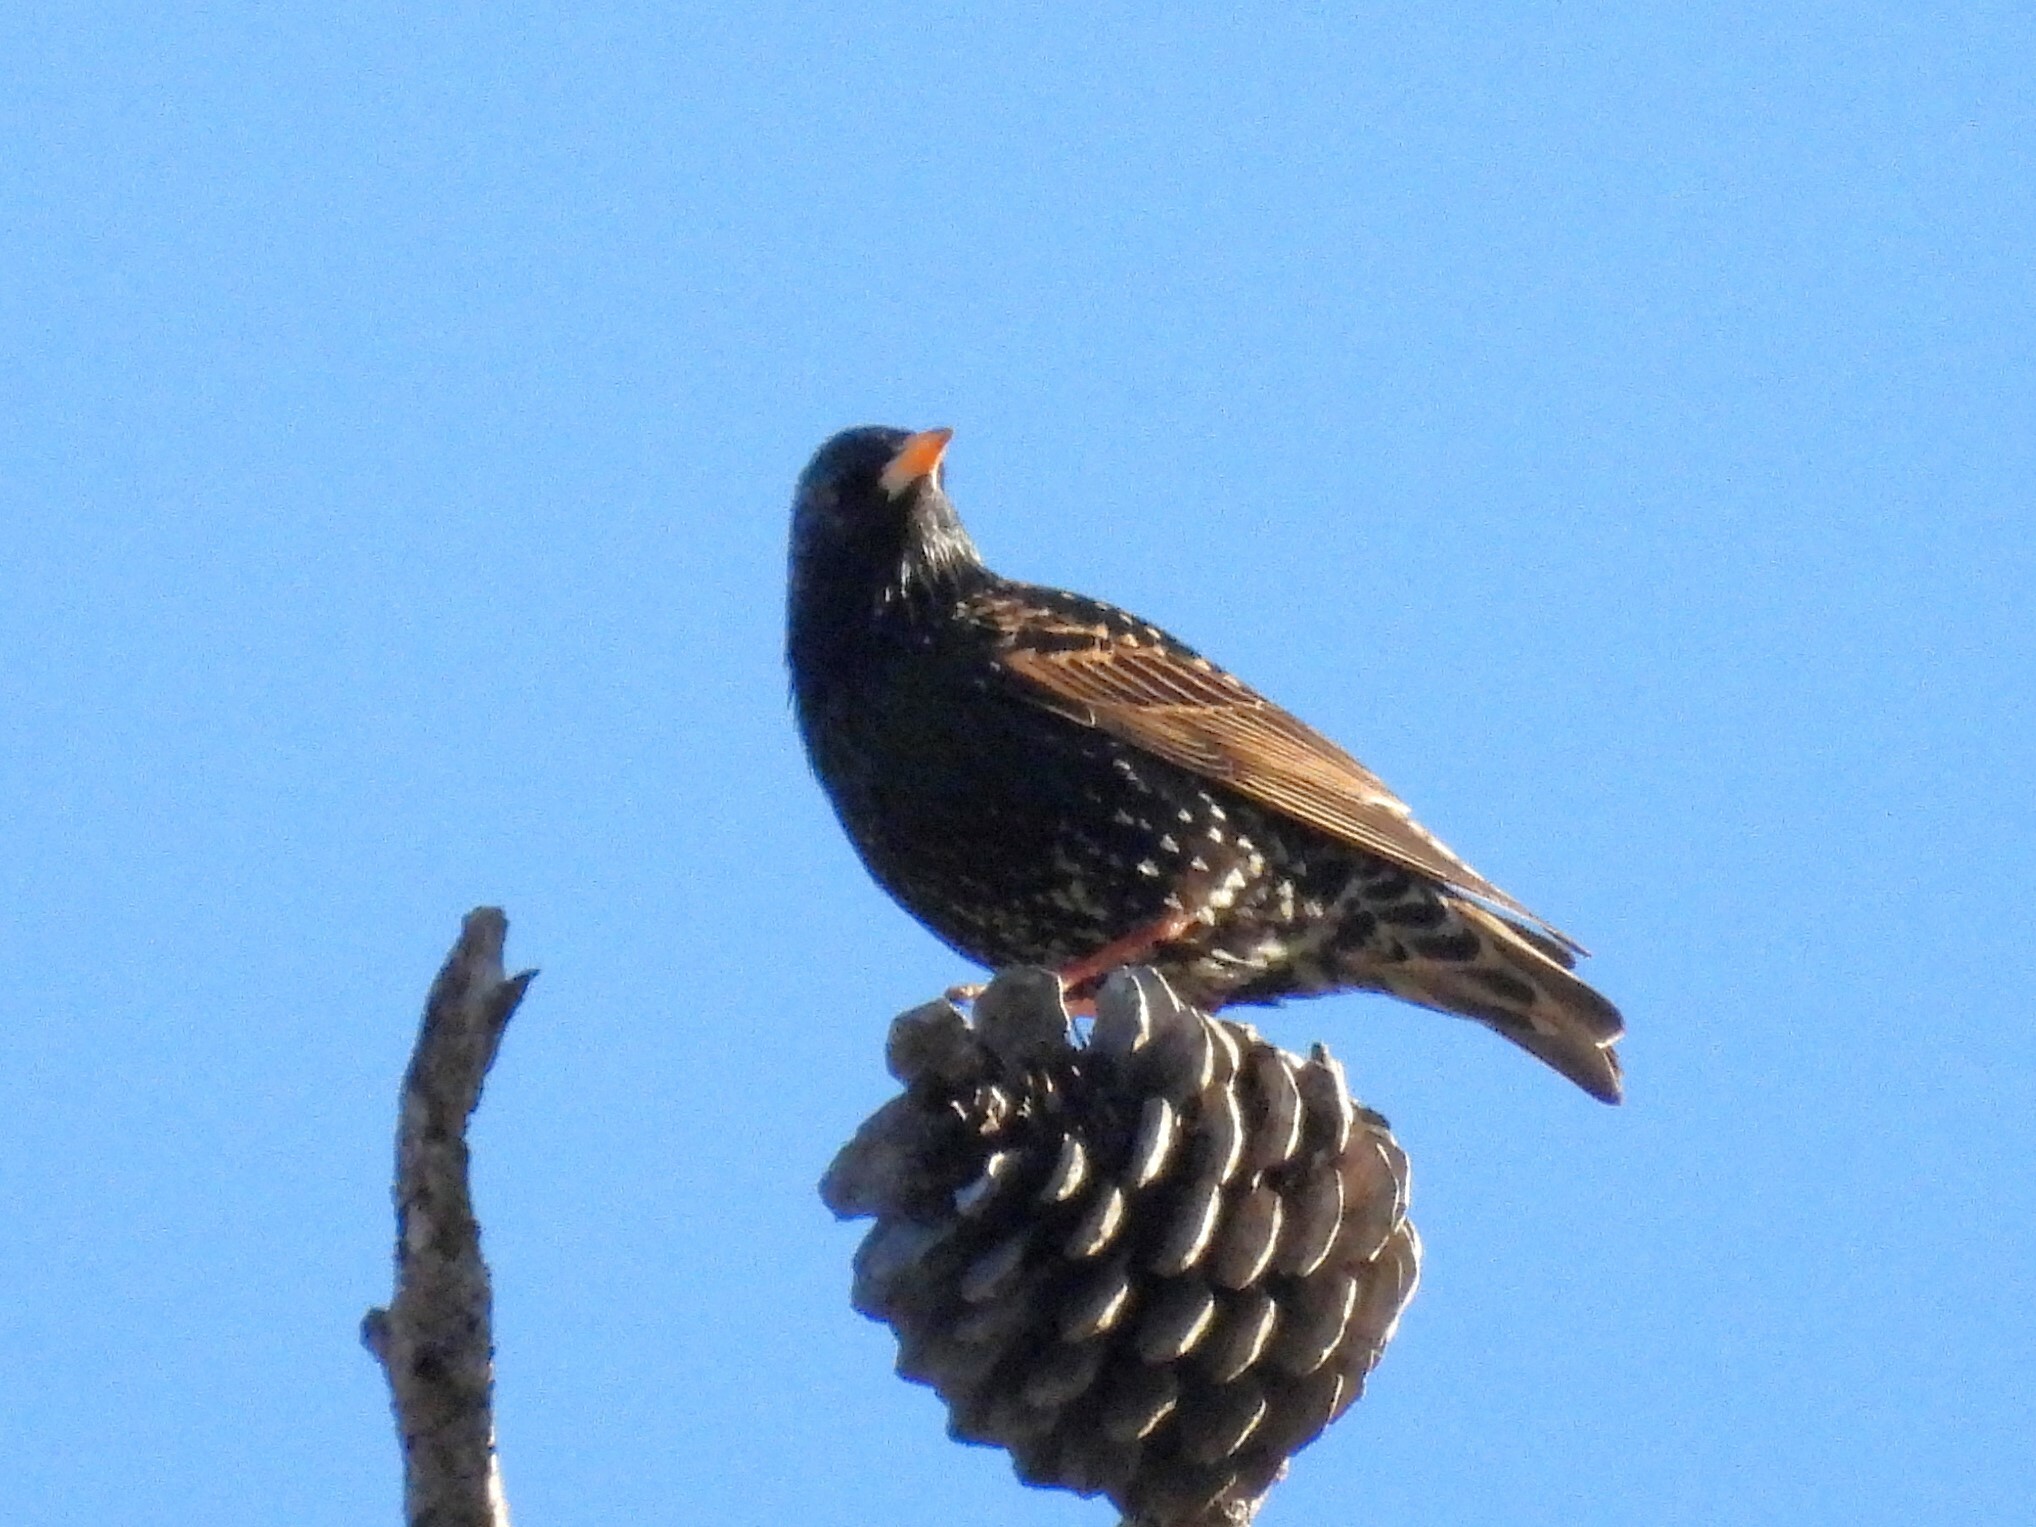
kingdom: Animalia
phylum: Chordata
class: Aves
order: Passeriformes
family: Sturnidae
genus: Sturnus
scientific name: Sturnus vulgaris
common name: Common starling
